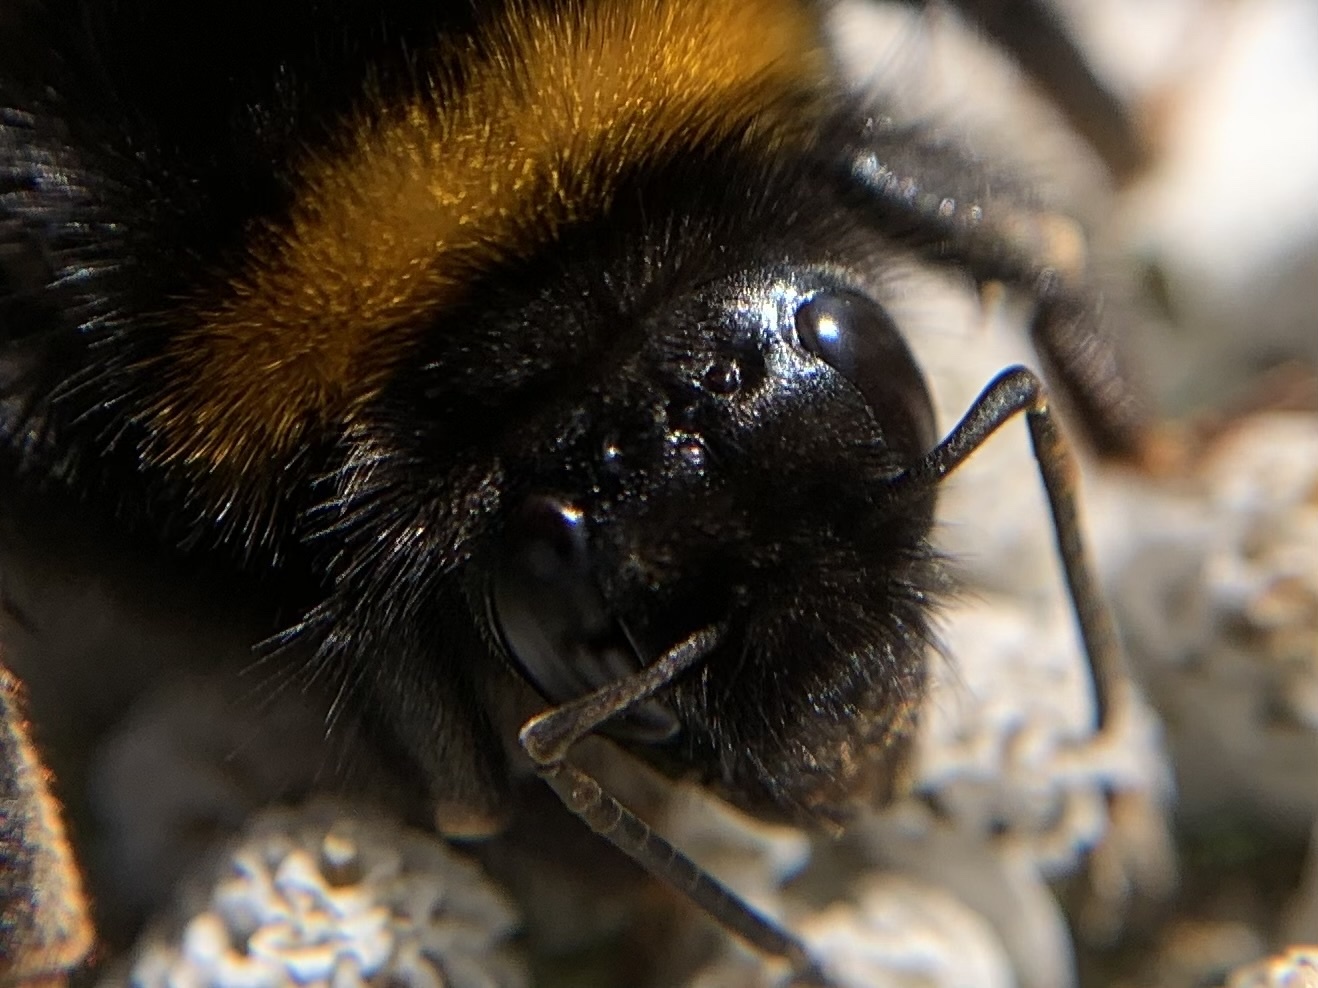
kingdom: Animalia
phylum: Arthropoda
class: Insecta
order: Hymenoptera
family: Apidae
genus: Bombus
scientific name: Bombus terrestris
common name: Buff-tailed bumblebee
